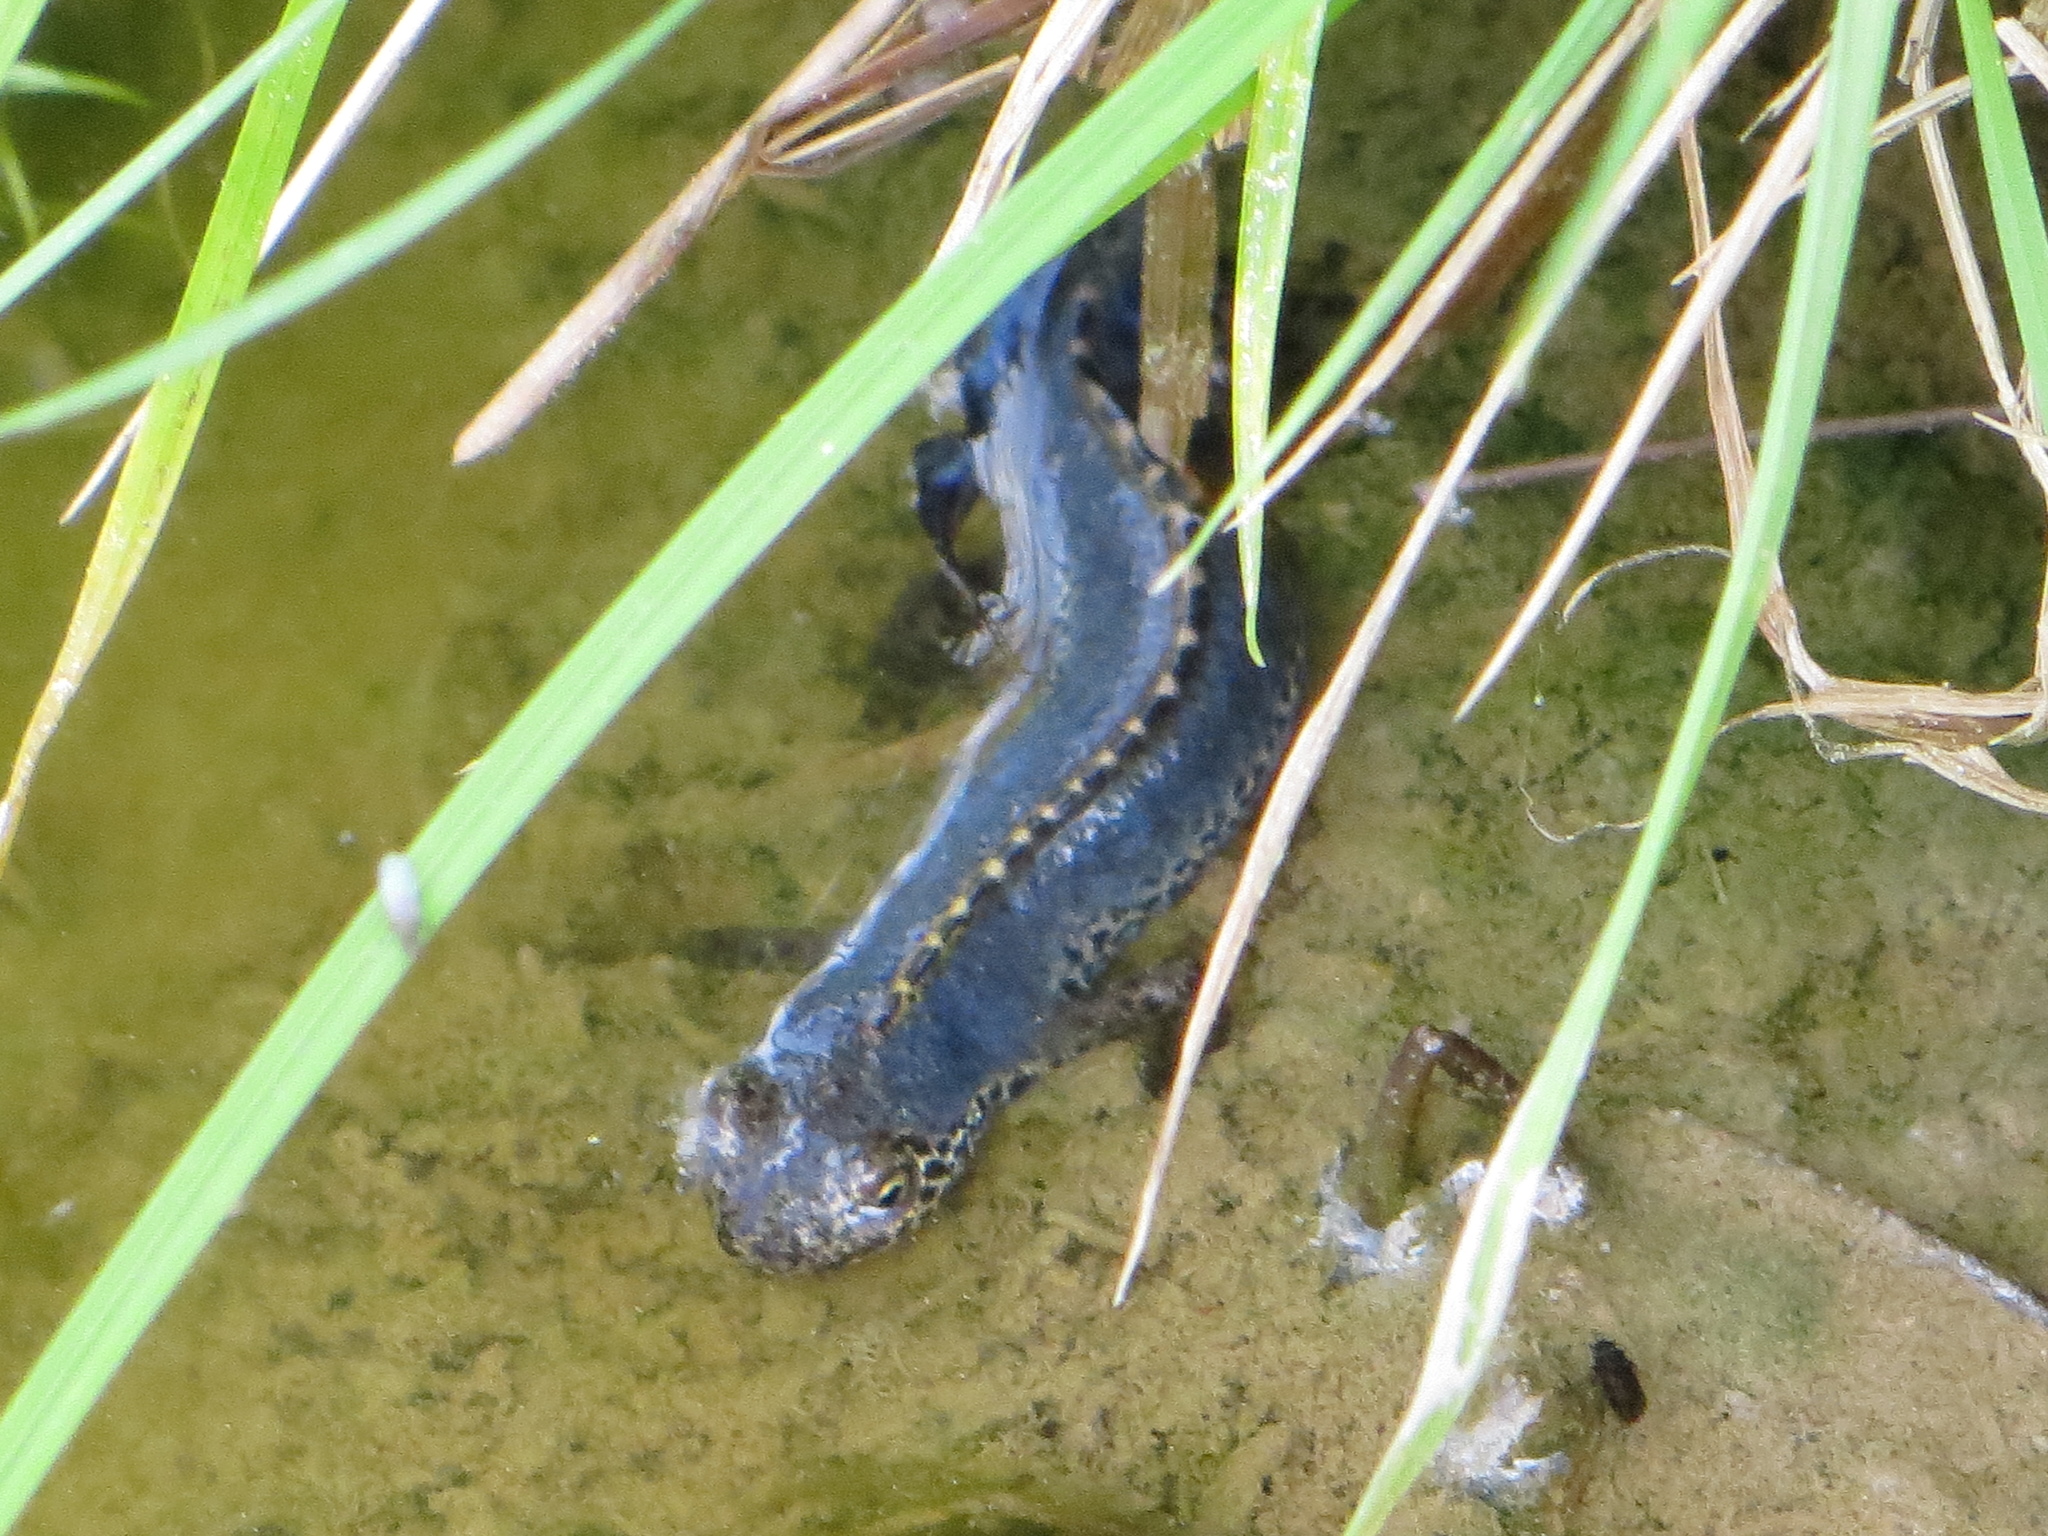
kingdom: Animalia
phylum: Chordata
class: Amphibia
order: Caudata
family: Salamandridae
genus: Ichthyosaura
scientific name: Ichthyosaura alpestris
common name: Alpine newt
